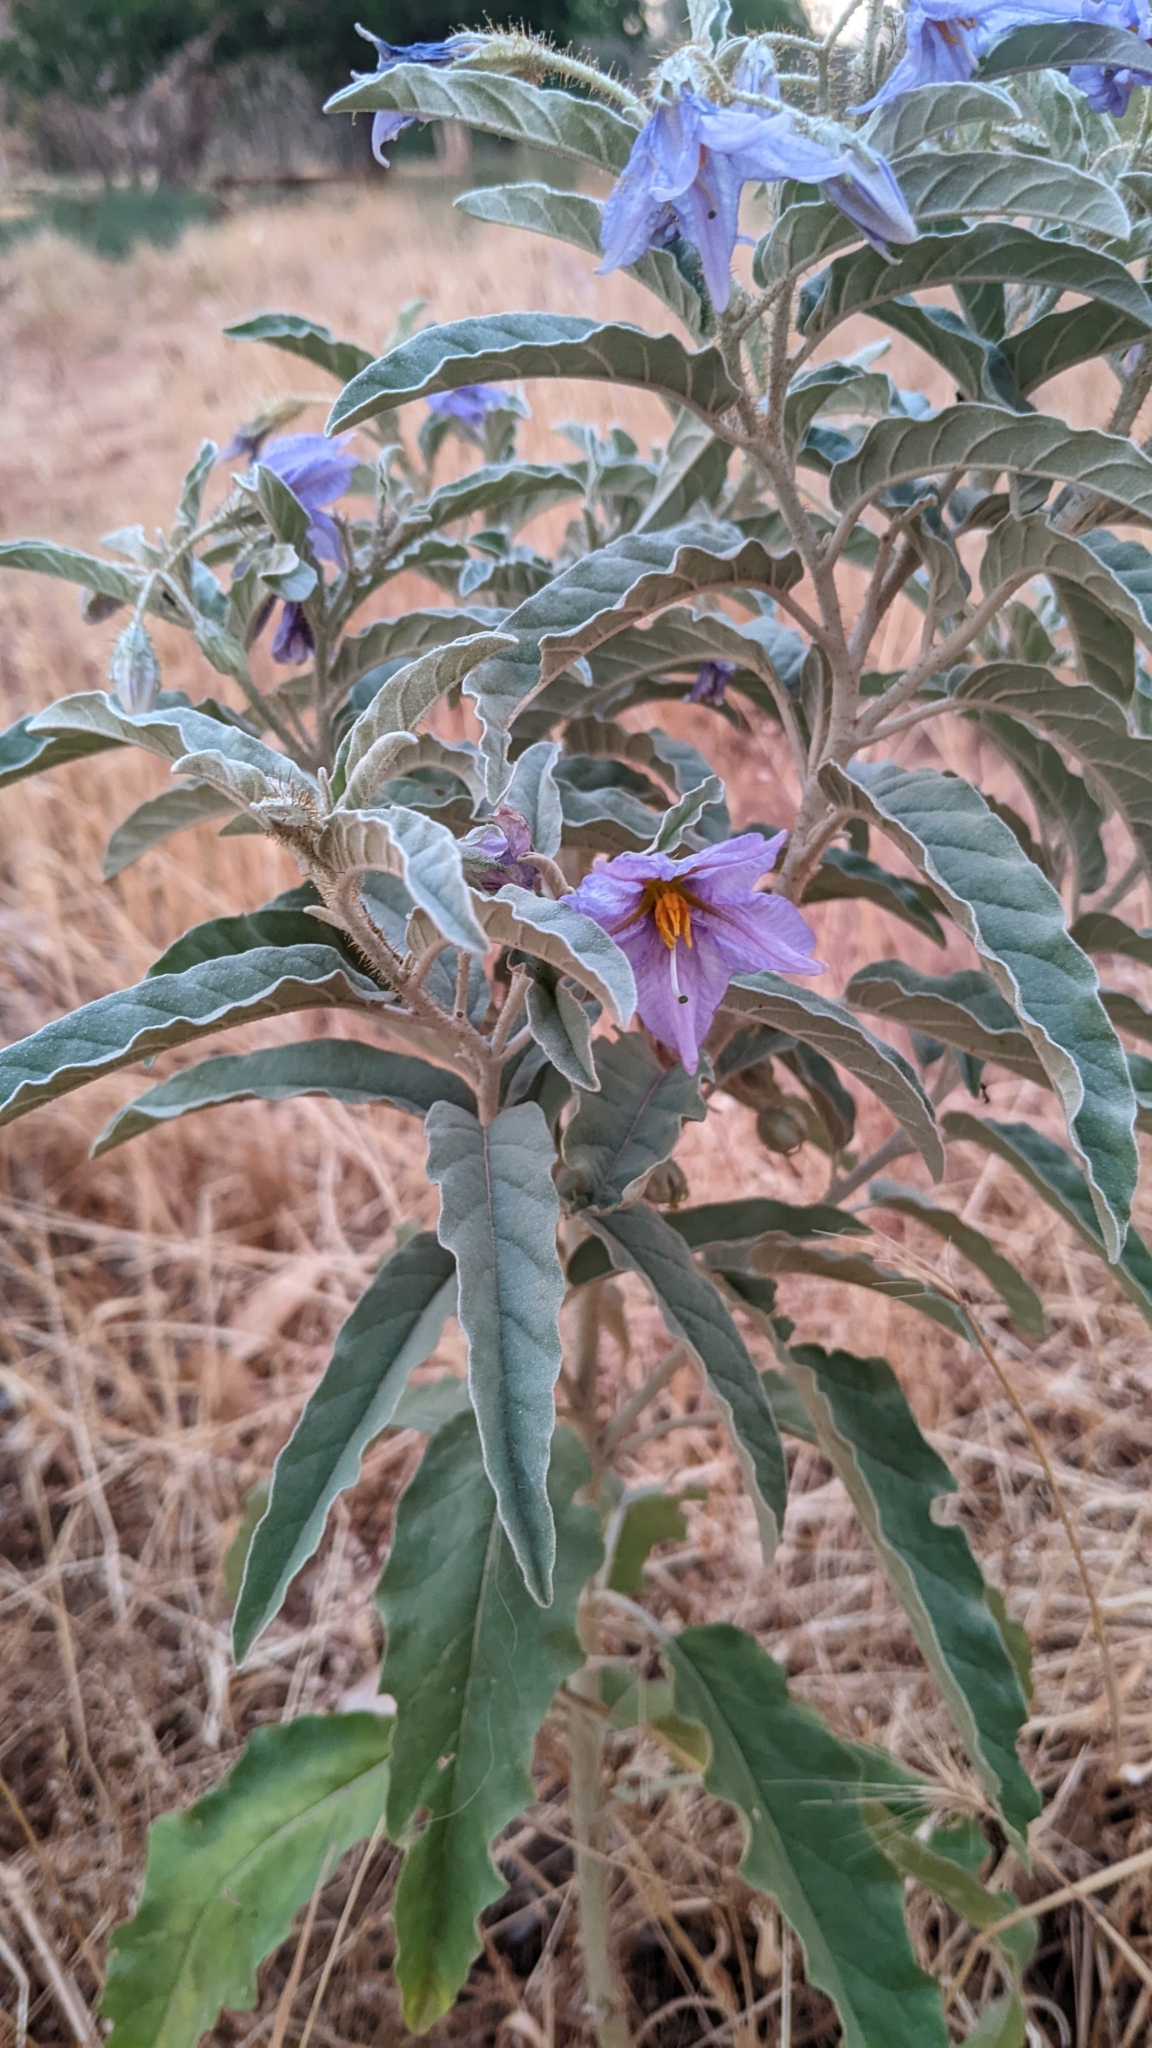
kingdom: Plantae
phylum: Tracheophyta
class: Magnoliopsida
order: Solanales
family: Solanaceae
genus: Solanum
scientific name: Solanum elaeagnifolium
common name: Silverleaf nightshade
